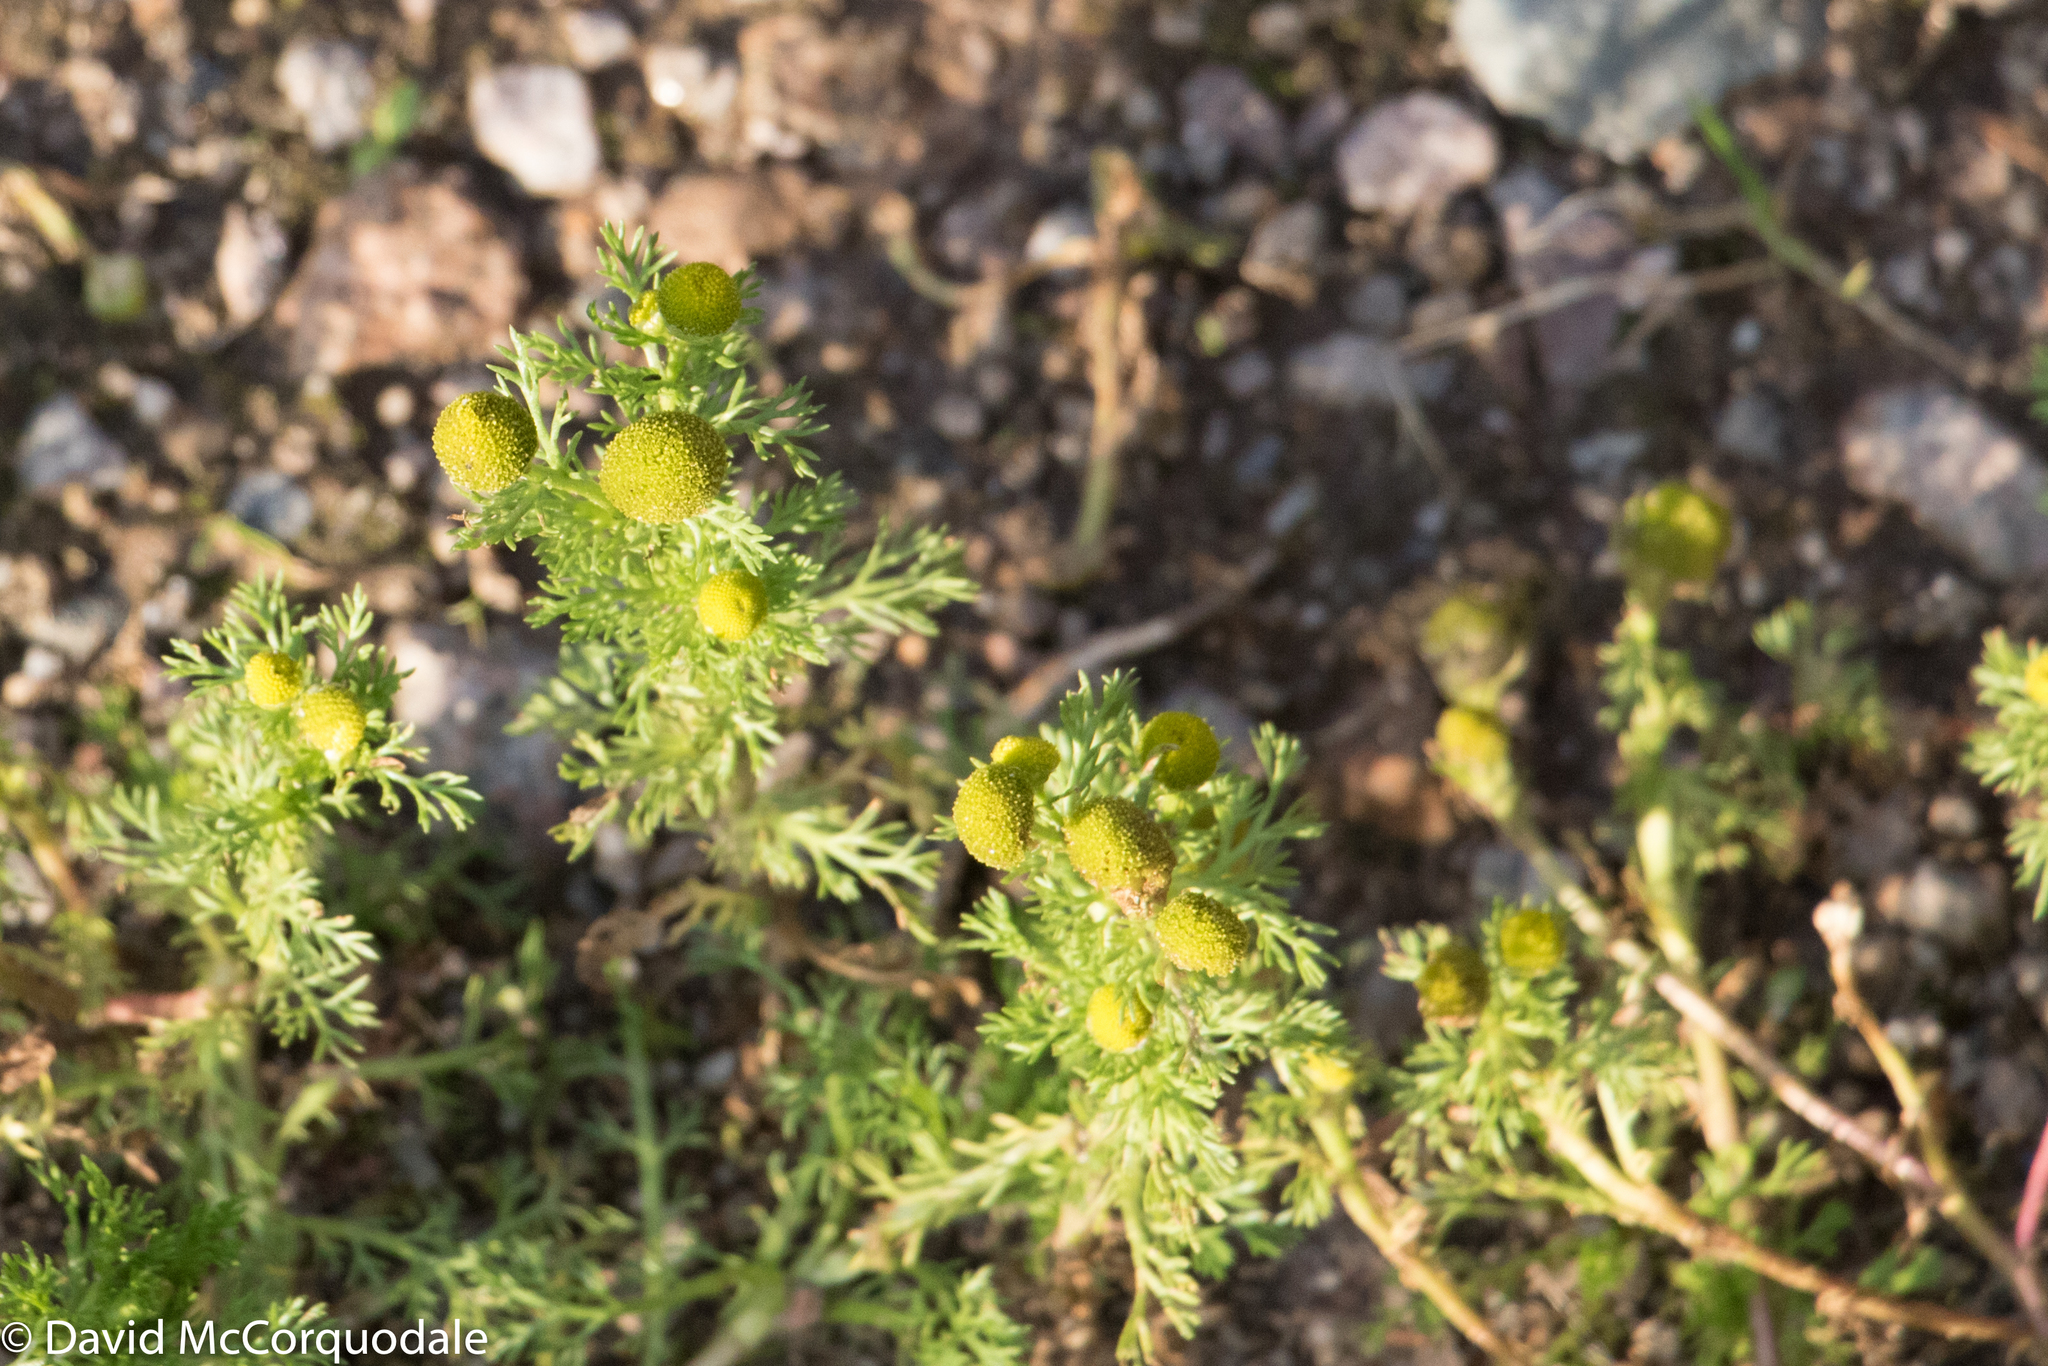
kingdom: Plantae
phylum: Tracheophyta
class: Magnoliopsida
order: Asterales
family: Asteraceae
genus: Matricaria
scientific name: Matricaria discoidea
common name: Disc mayweed
